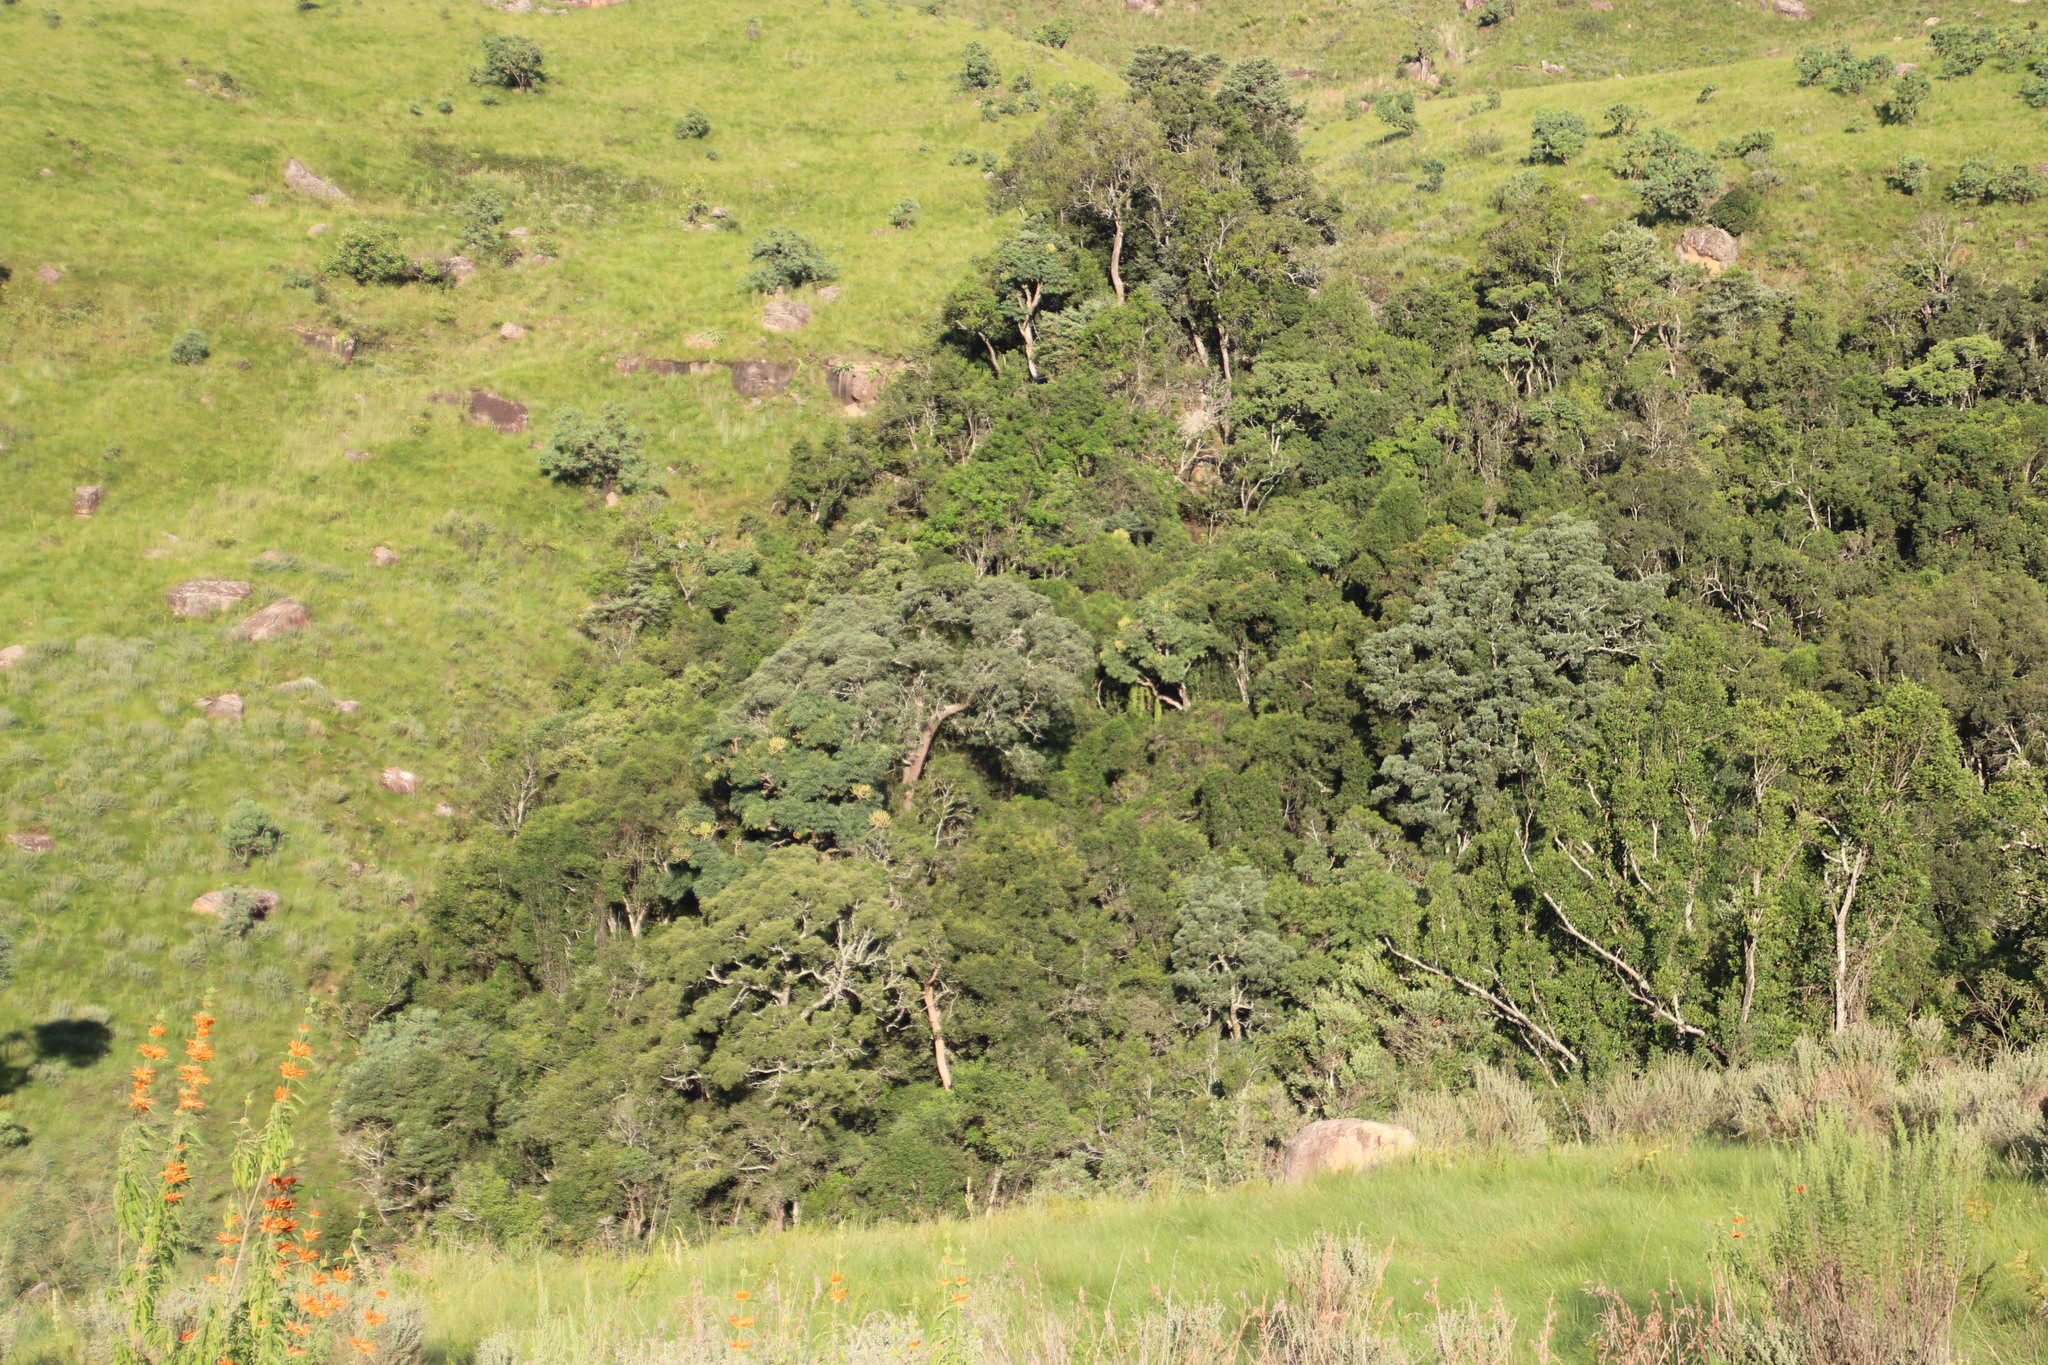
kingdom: Plantae
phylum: Tracheophyta
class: Pinopsida
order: Pinales
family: Podocarpaceae
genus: Afrocarpus
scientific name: Afrocarpus falcatus
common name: Bastard yellowwood
